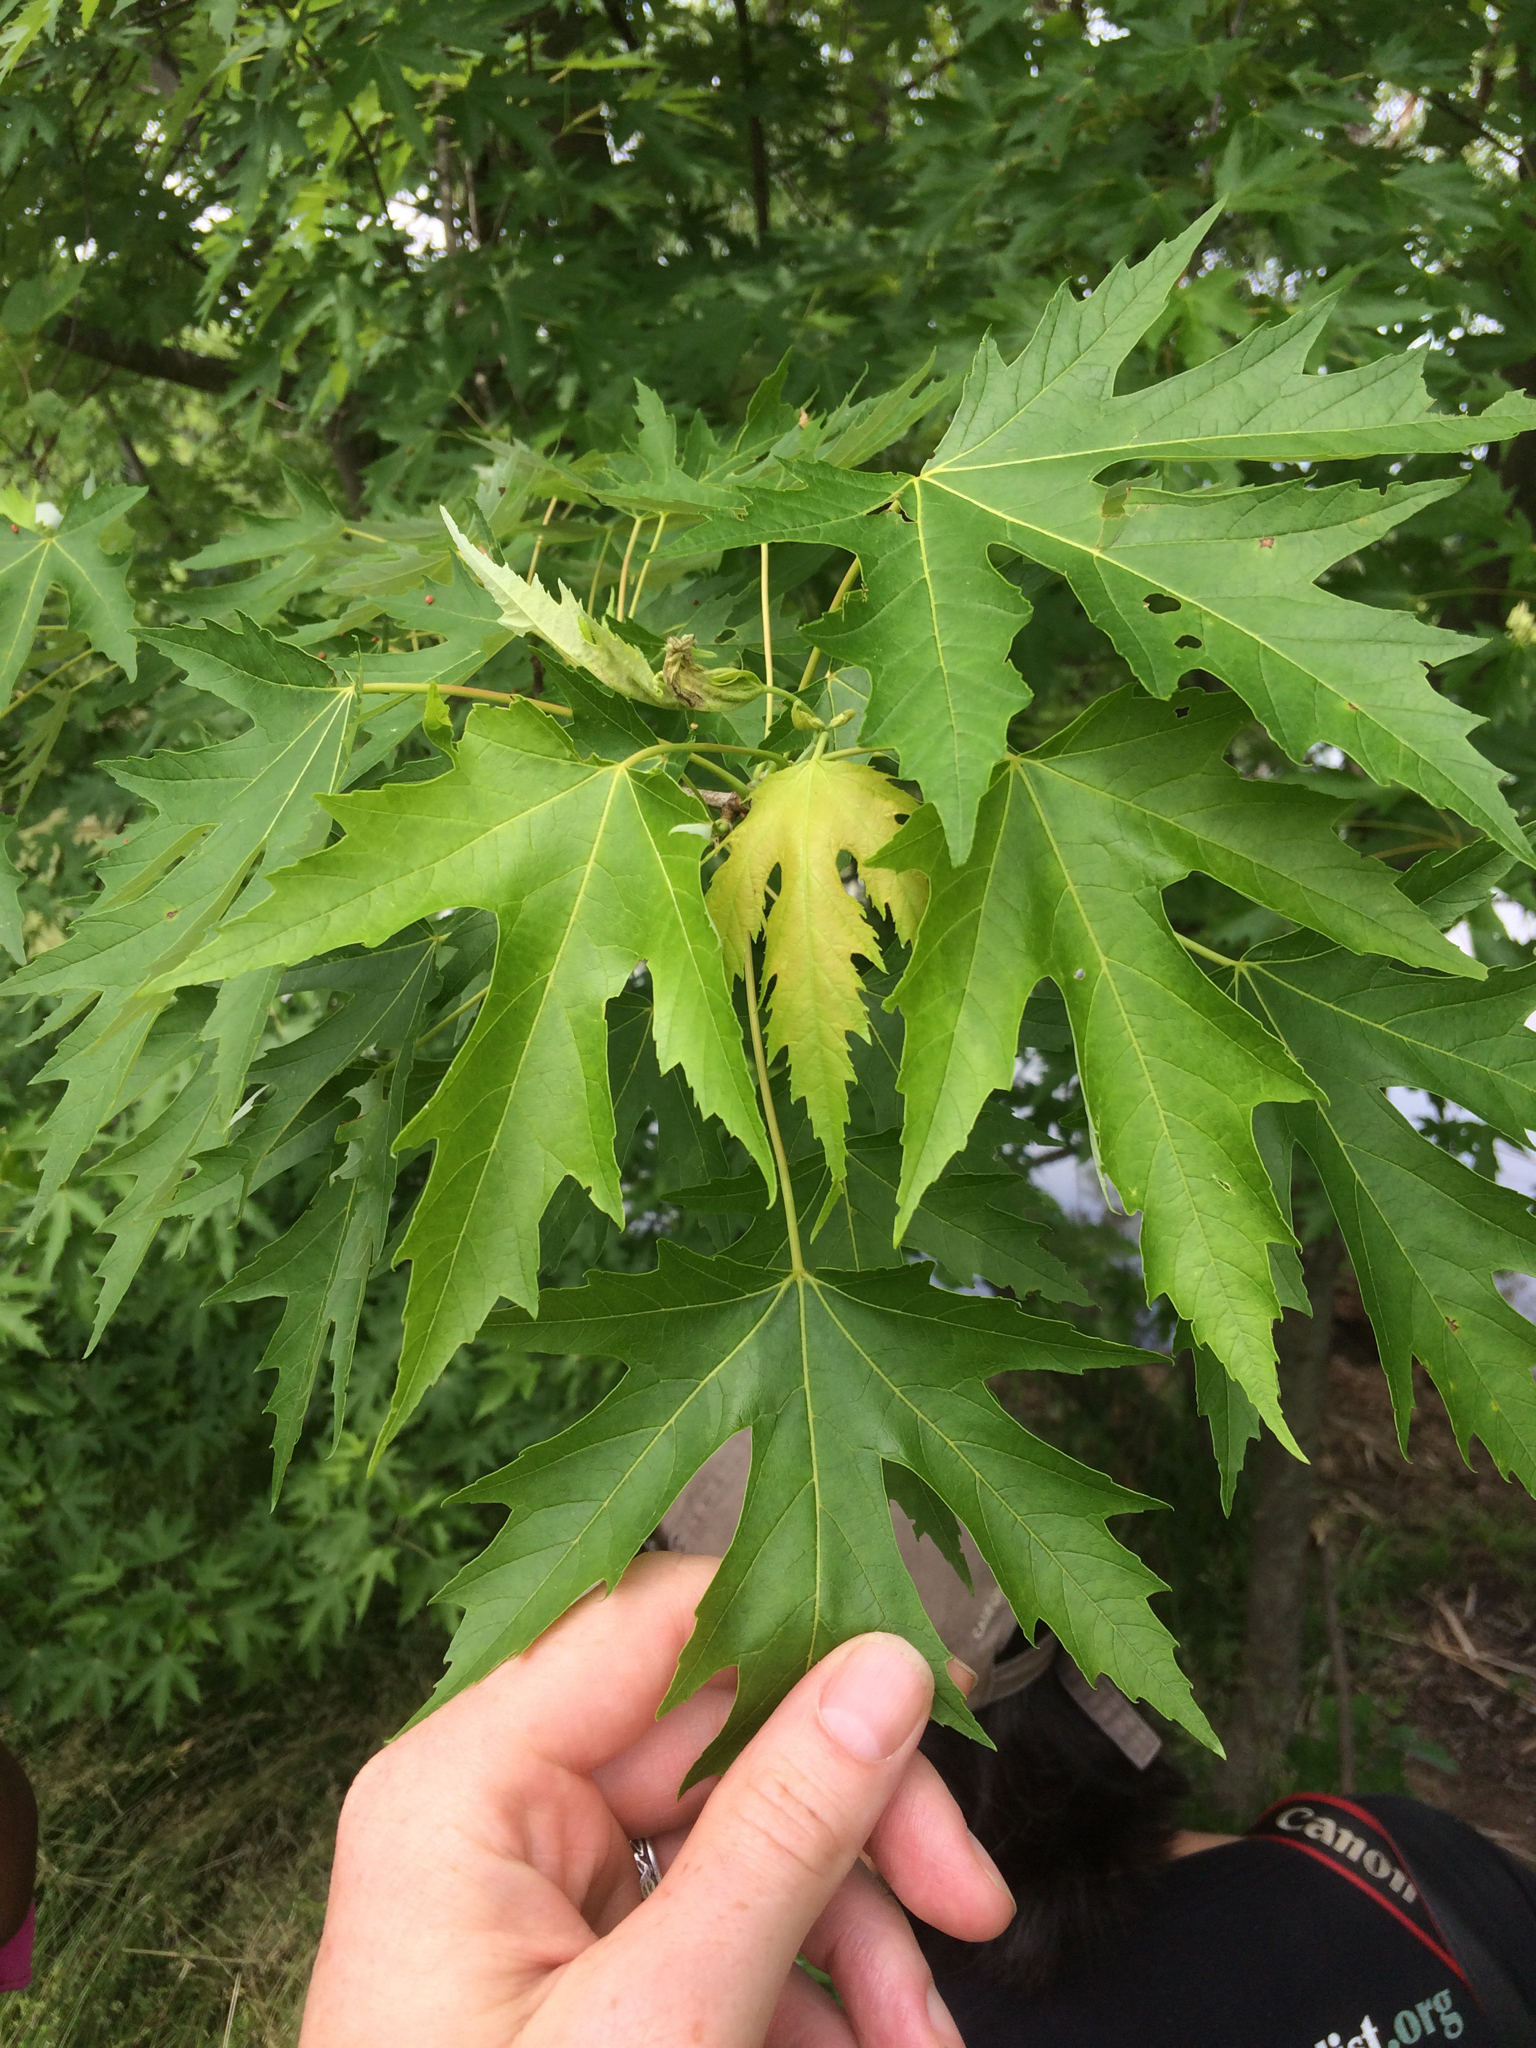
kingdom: Plantae
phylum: Tracheophyta
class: Magnoliopsida
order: Sapindales
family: Sapindaceae
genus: Acer
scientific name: Acer saccharinum
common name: Silver maple
